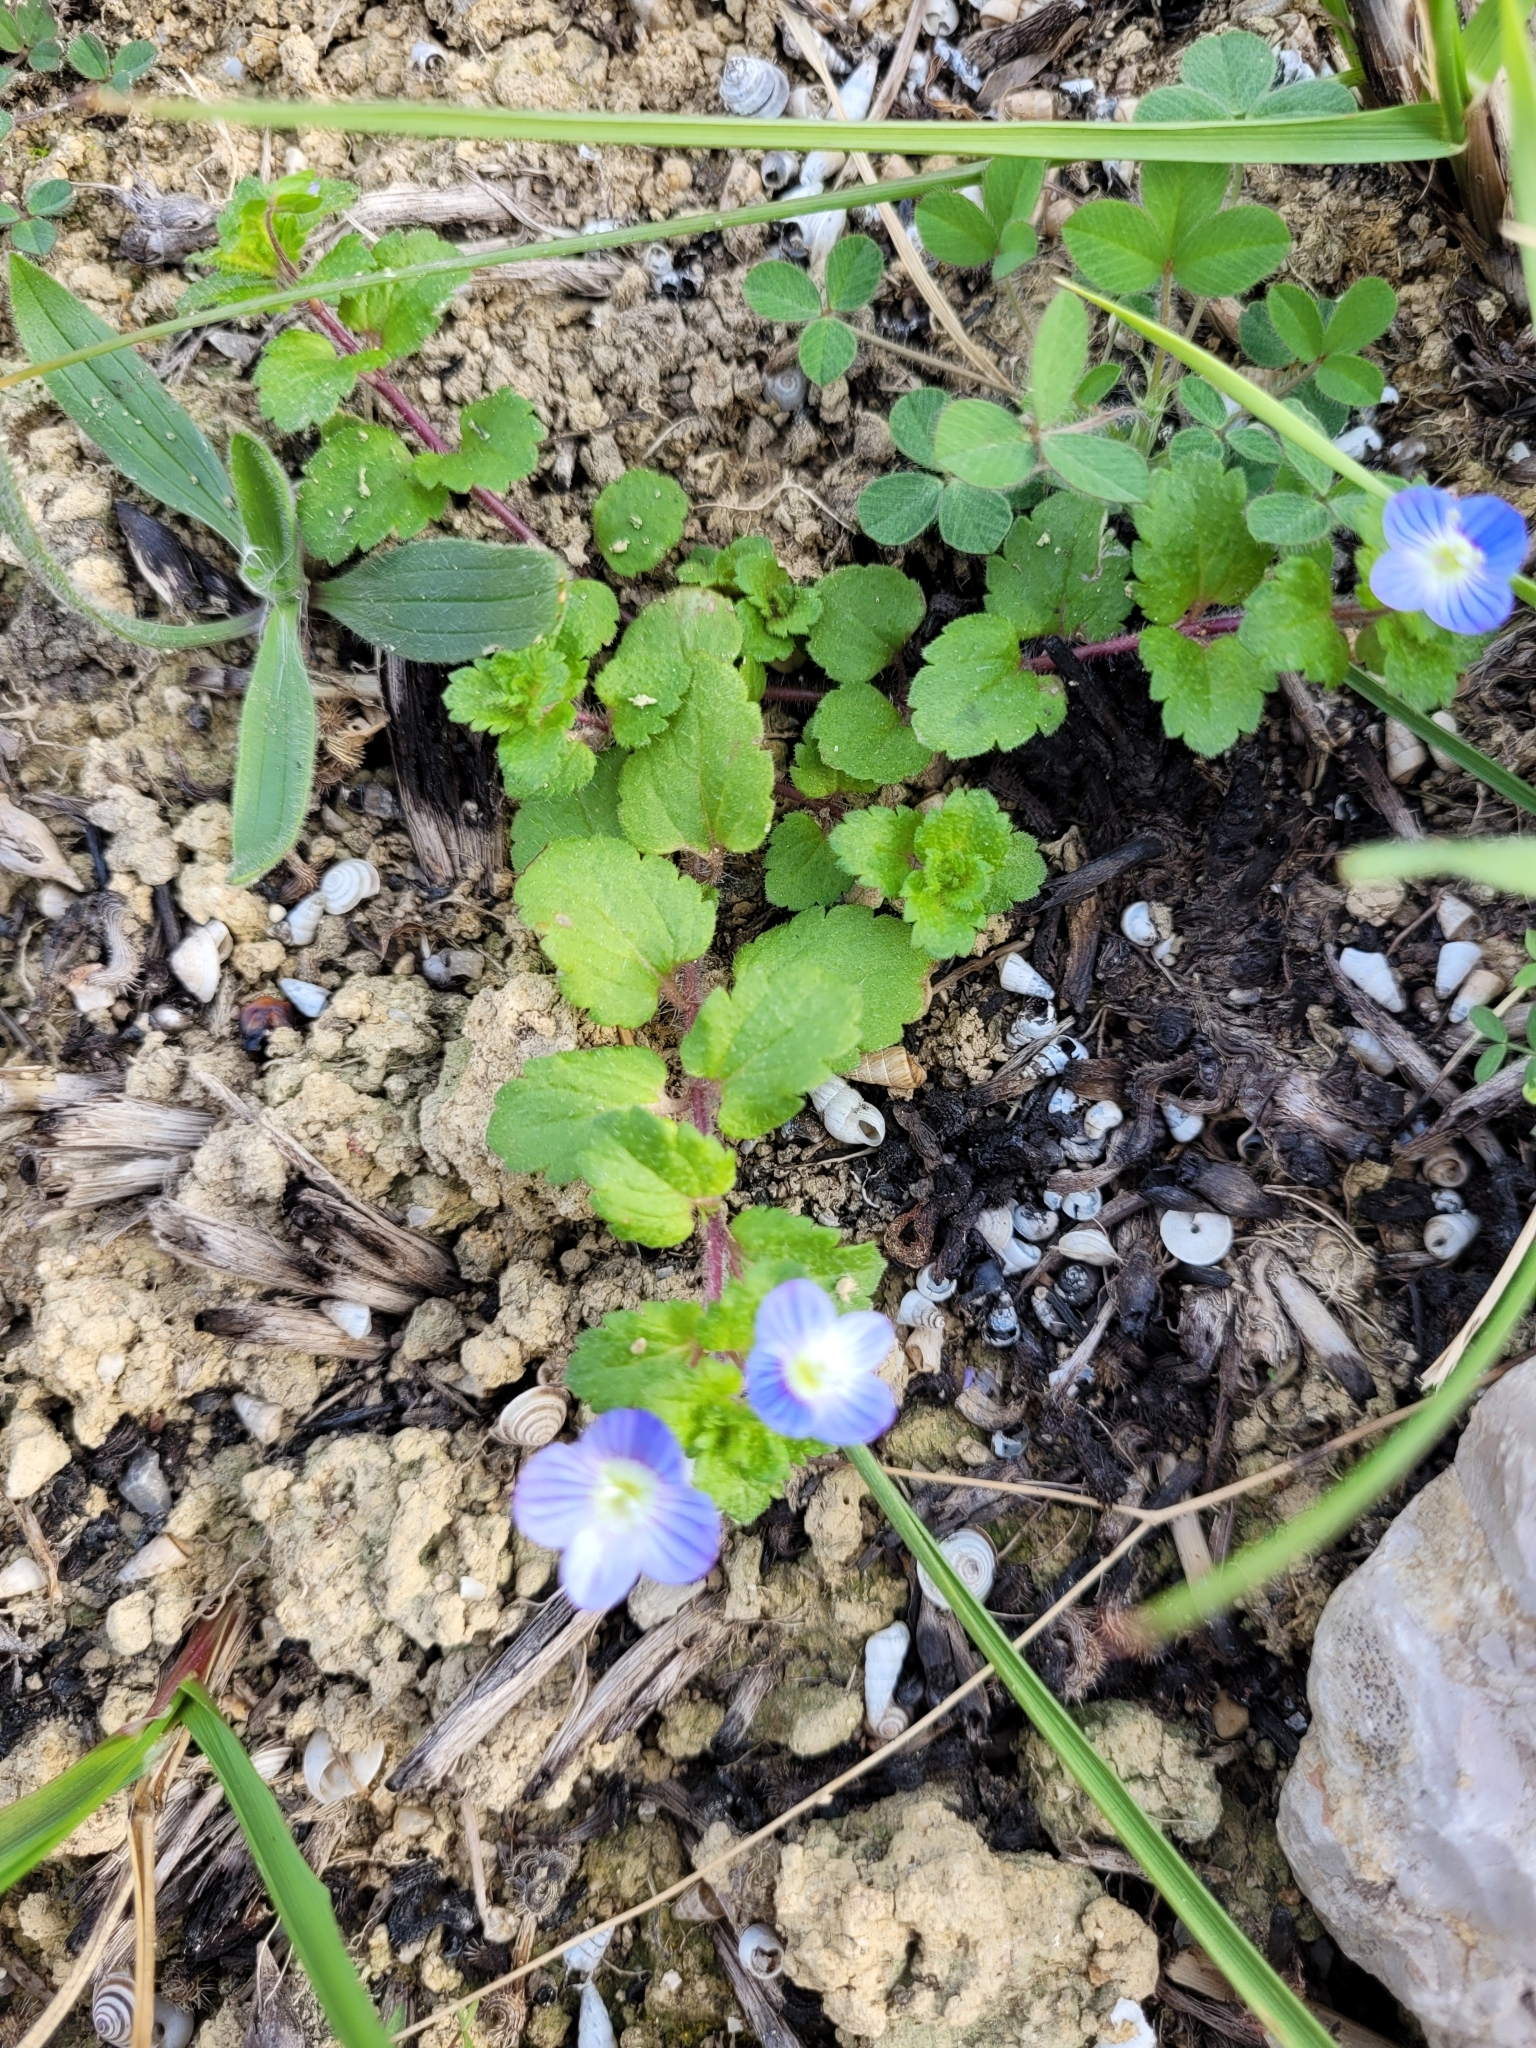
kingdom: Plantae
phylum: Tracheophyta
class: Magnoliopsida
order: Lamiales
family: Plantaginaceae
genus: Veronica
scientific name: Veronica persica
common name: Common field-speedwell
